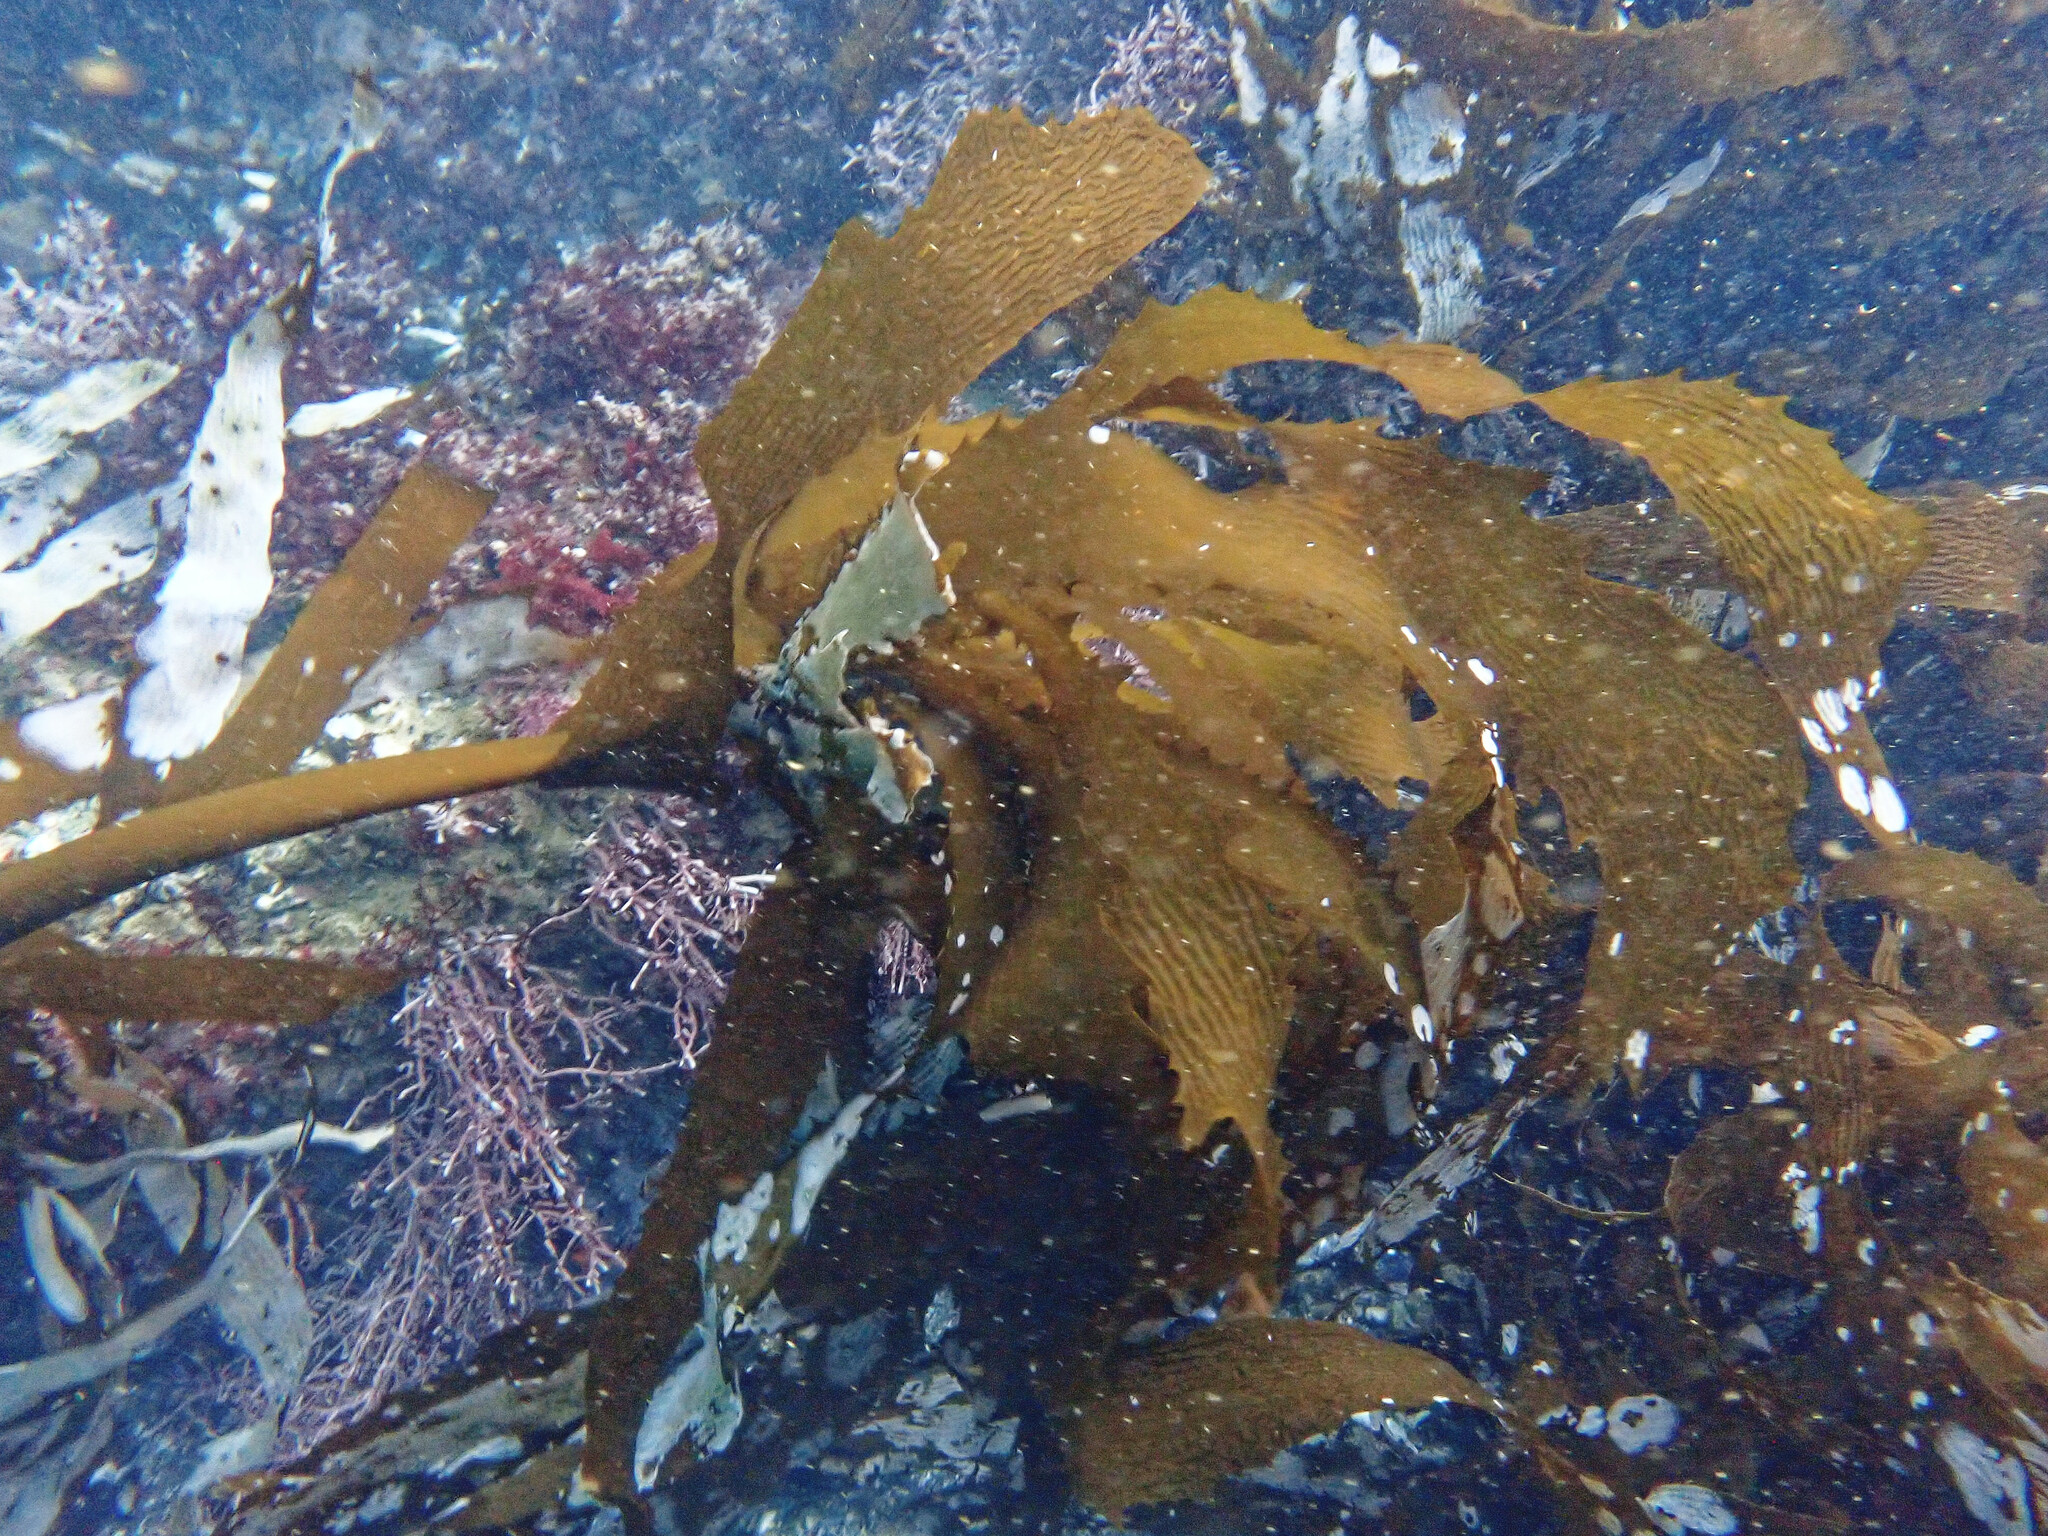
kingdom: Chromista
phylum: Ochrophyta
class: Phaeophyceae
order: Laminariales
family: Lessoniaceae
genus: Eisenia
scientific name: Eisenia arborea
